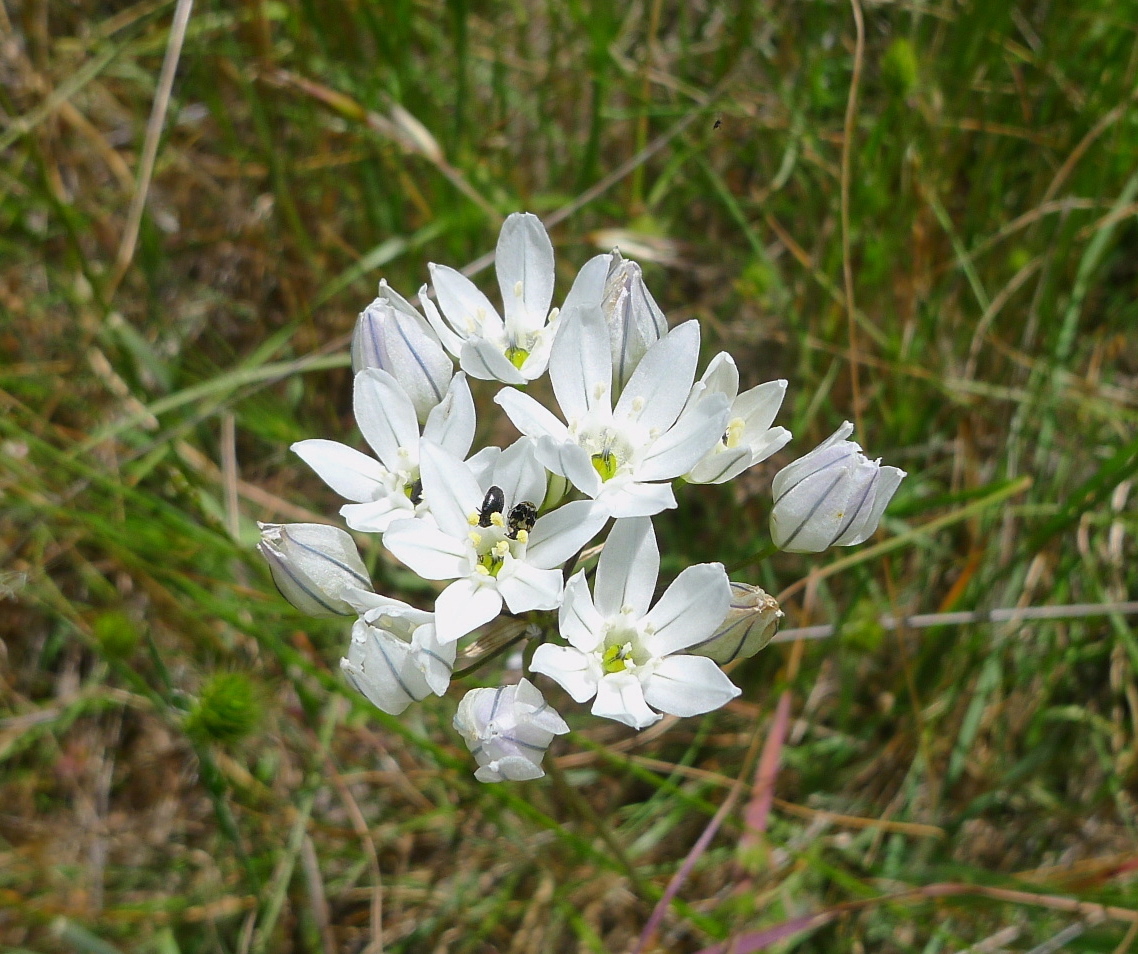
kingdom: Plantae
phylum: Tracheophyta
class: Liliopsida
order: Asparagales
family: Asparagaceae
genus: Triteleia
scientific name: Triteleia hyacinthina
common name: White brodiaea
